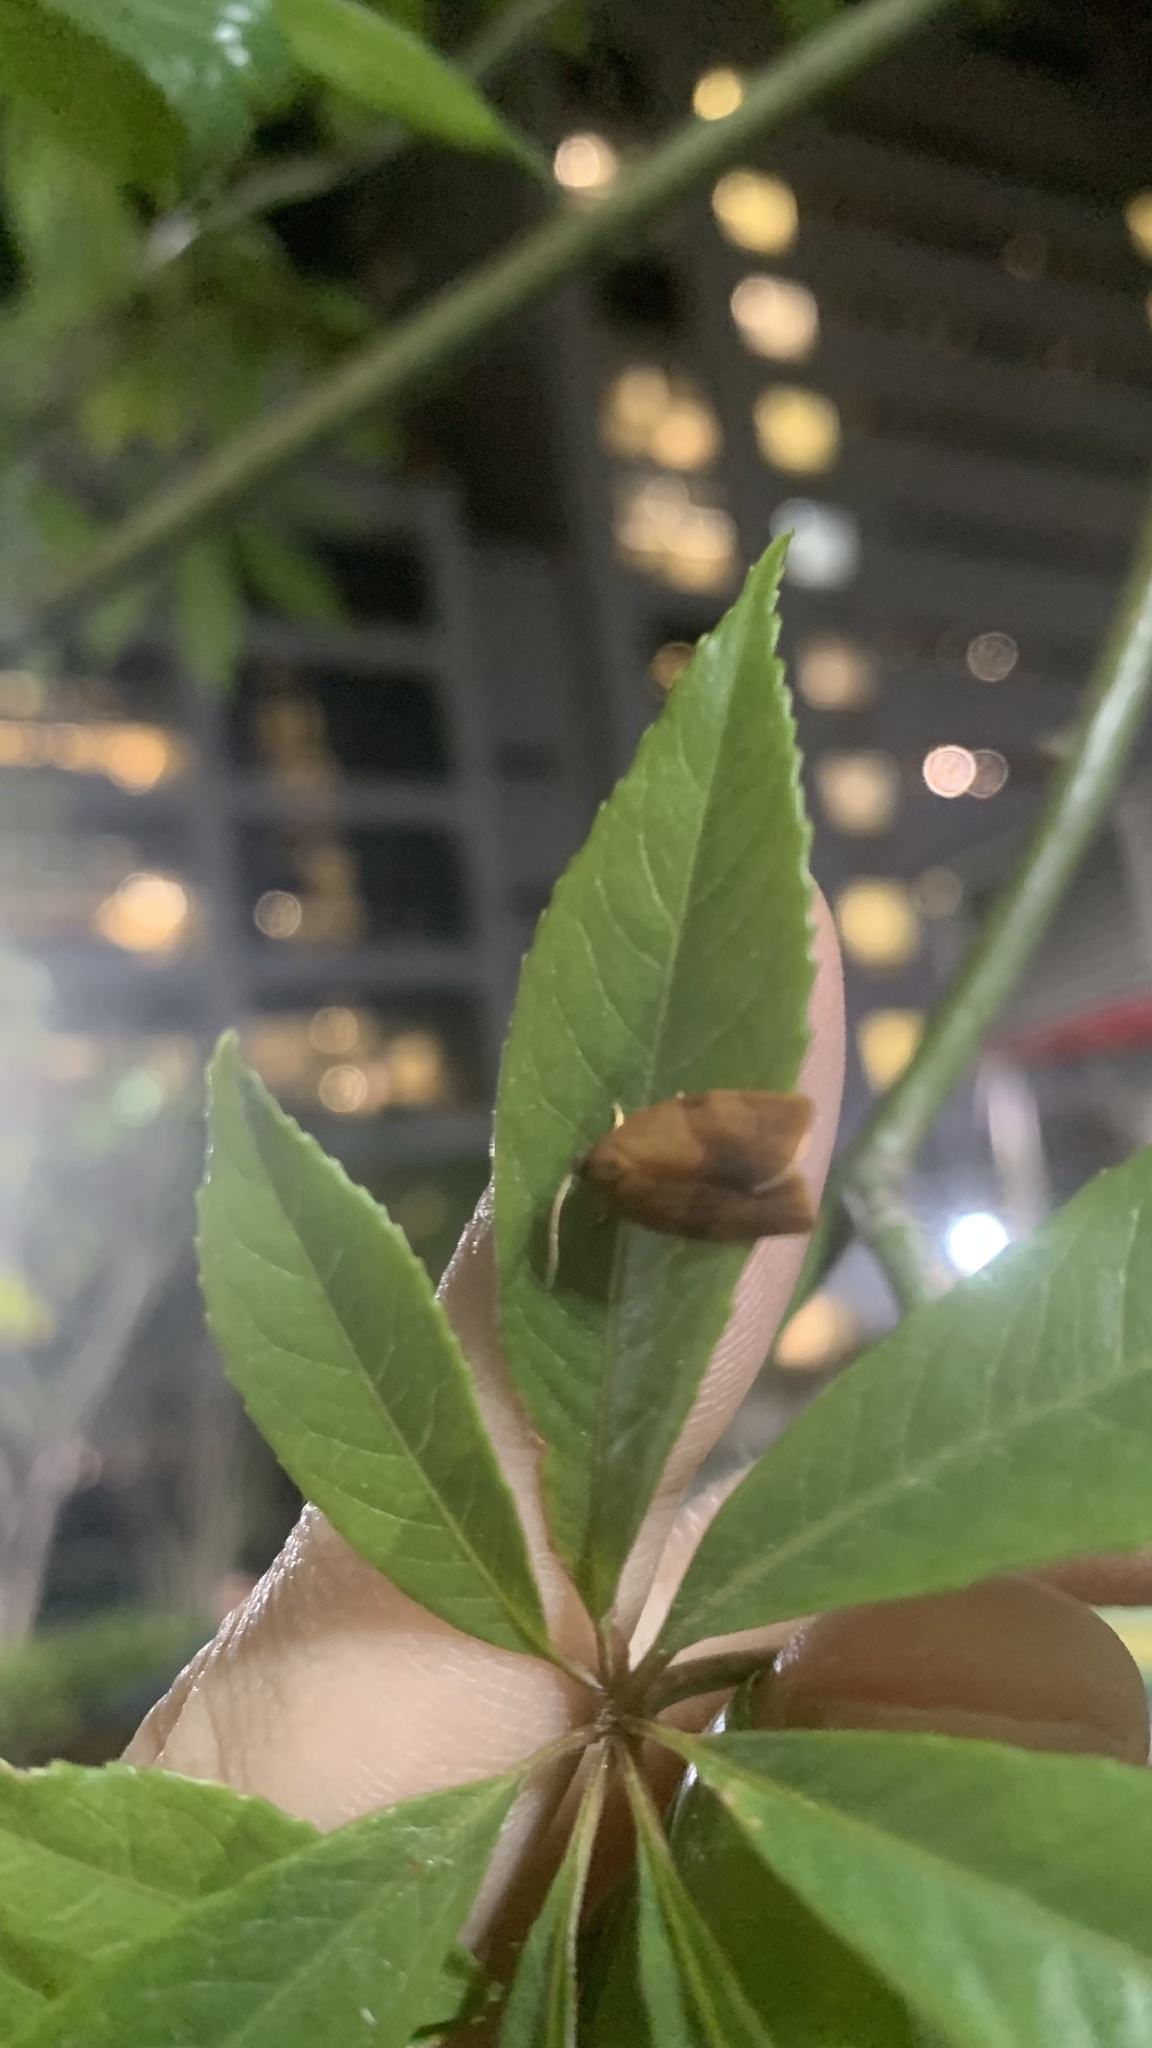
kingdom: Animalia
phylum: Arthropoda
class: Insecta
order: Lepidoptera
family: Tortricidae
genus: Cacoecimorpha
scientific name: Cacoecimorpha pronubana
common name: Carnation tortrix
